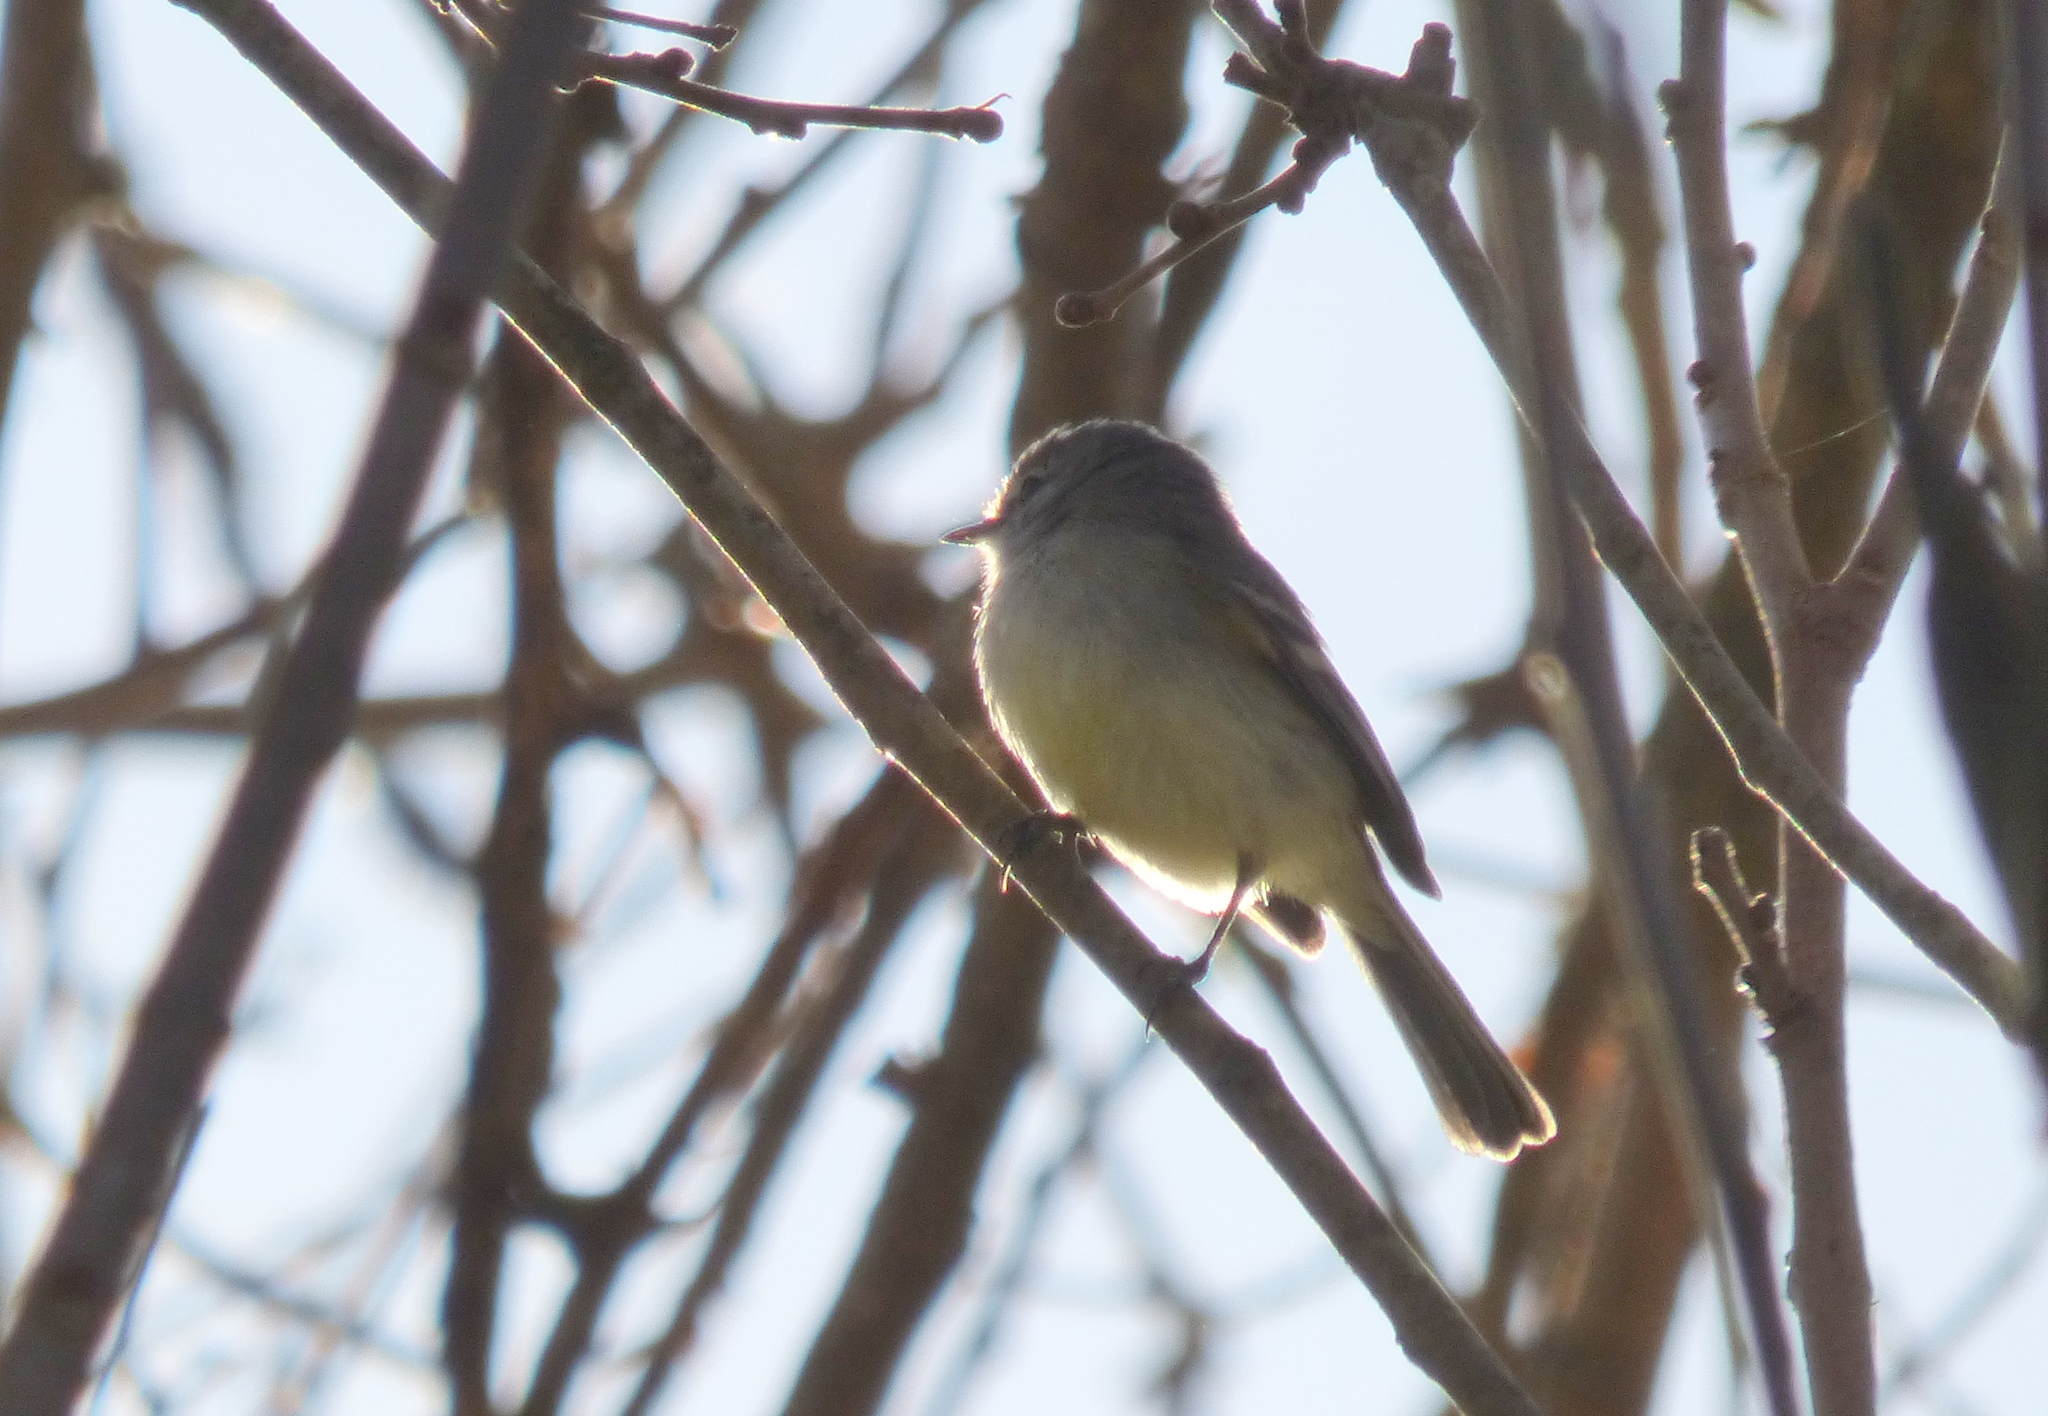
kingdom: Animalia
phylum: Chordata
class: Aves
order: Passeriformes
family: Tyrannidae
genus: Serpophaga
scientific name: Serpophaga subcristata
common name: White-crested tyrannulet
